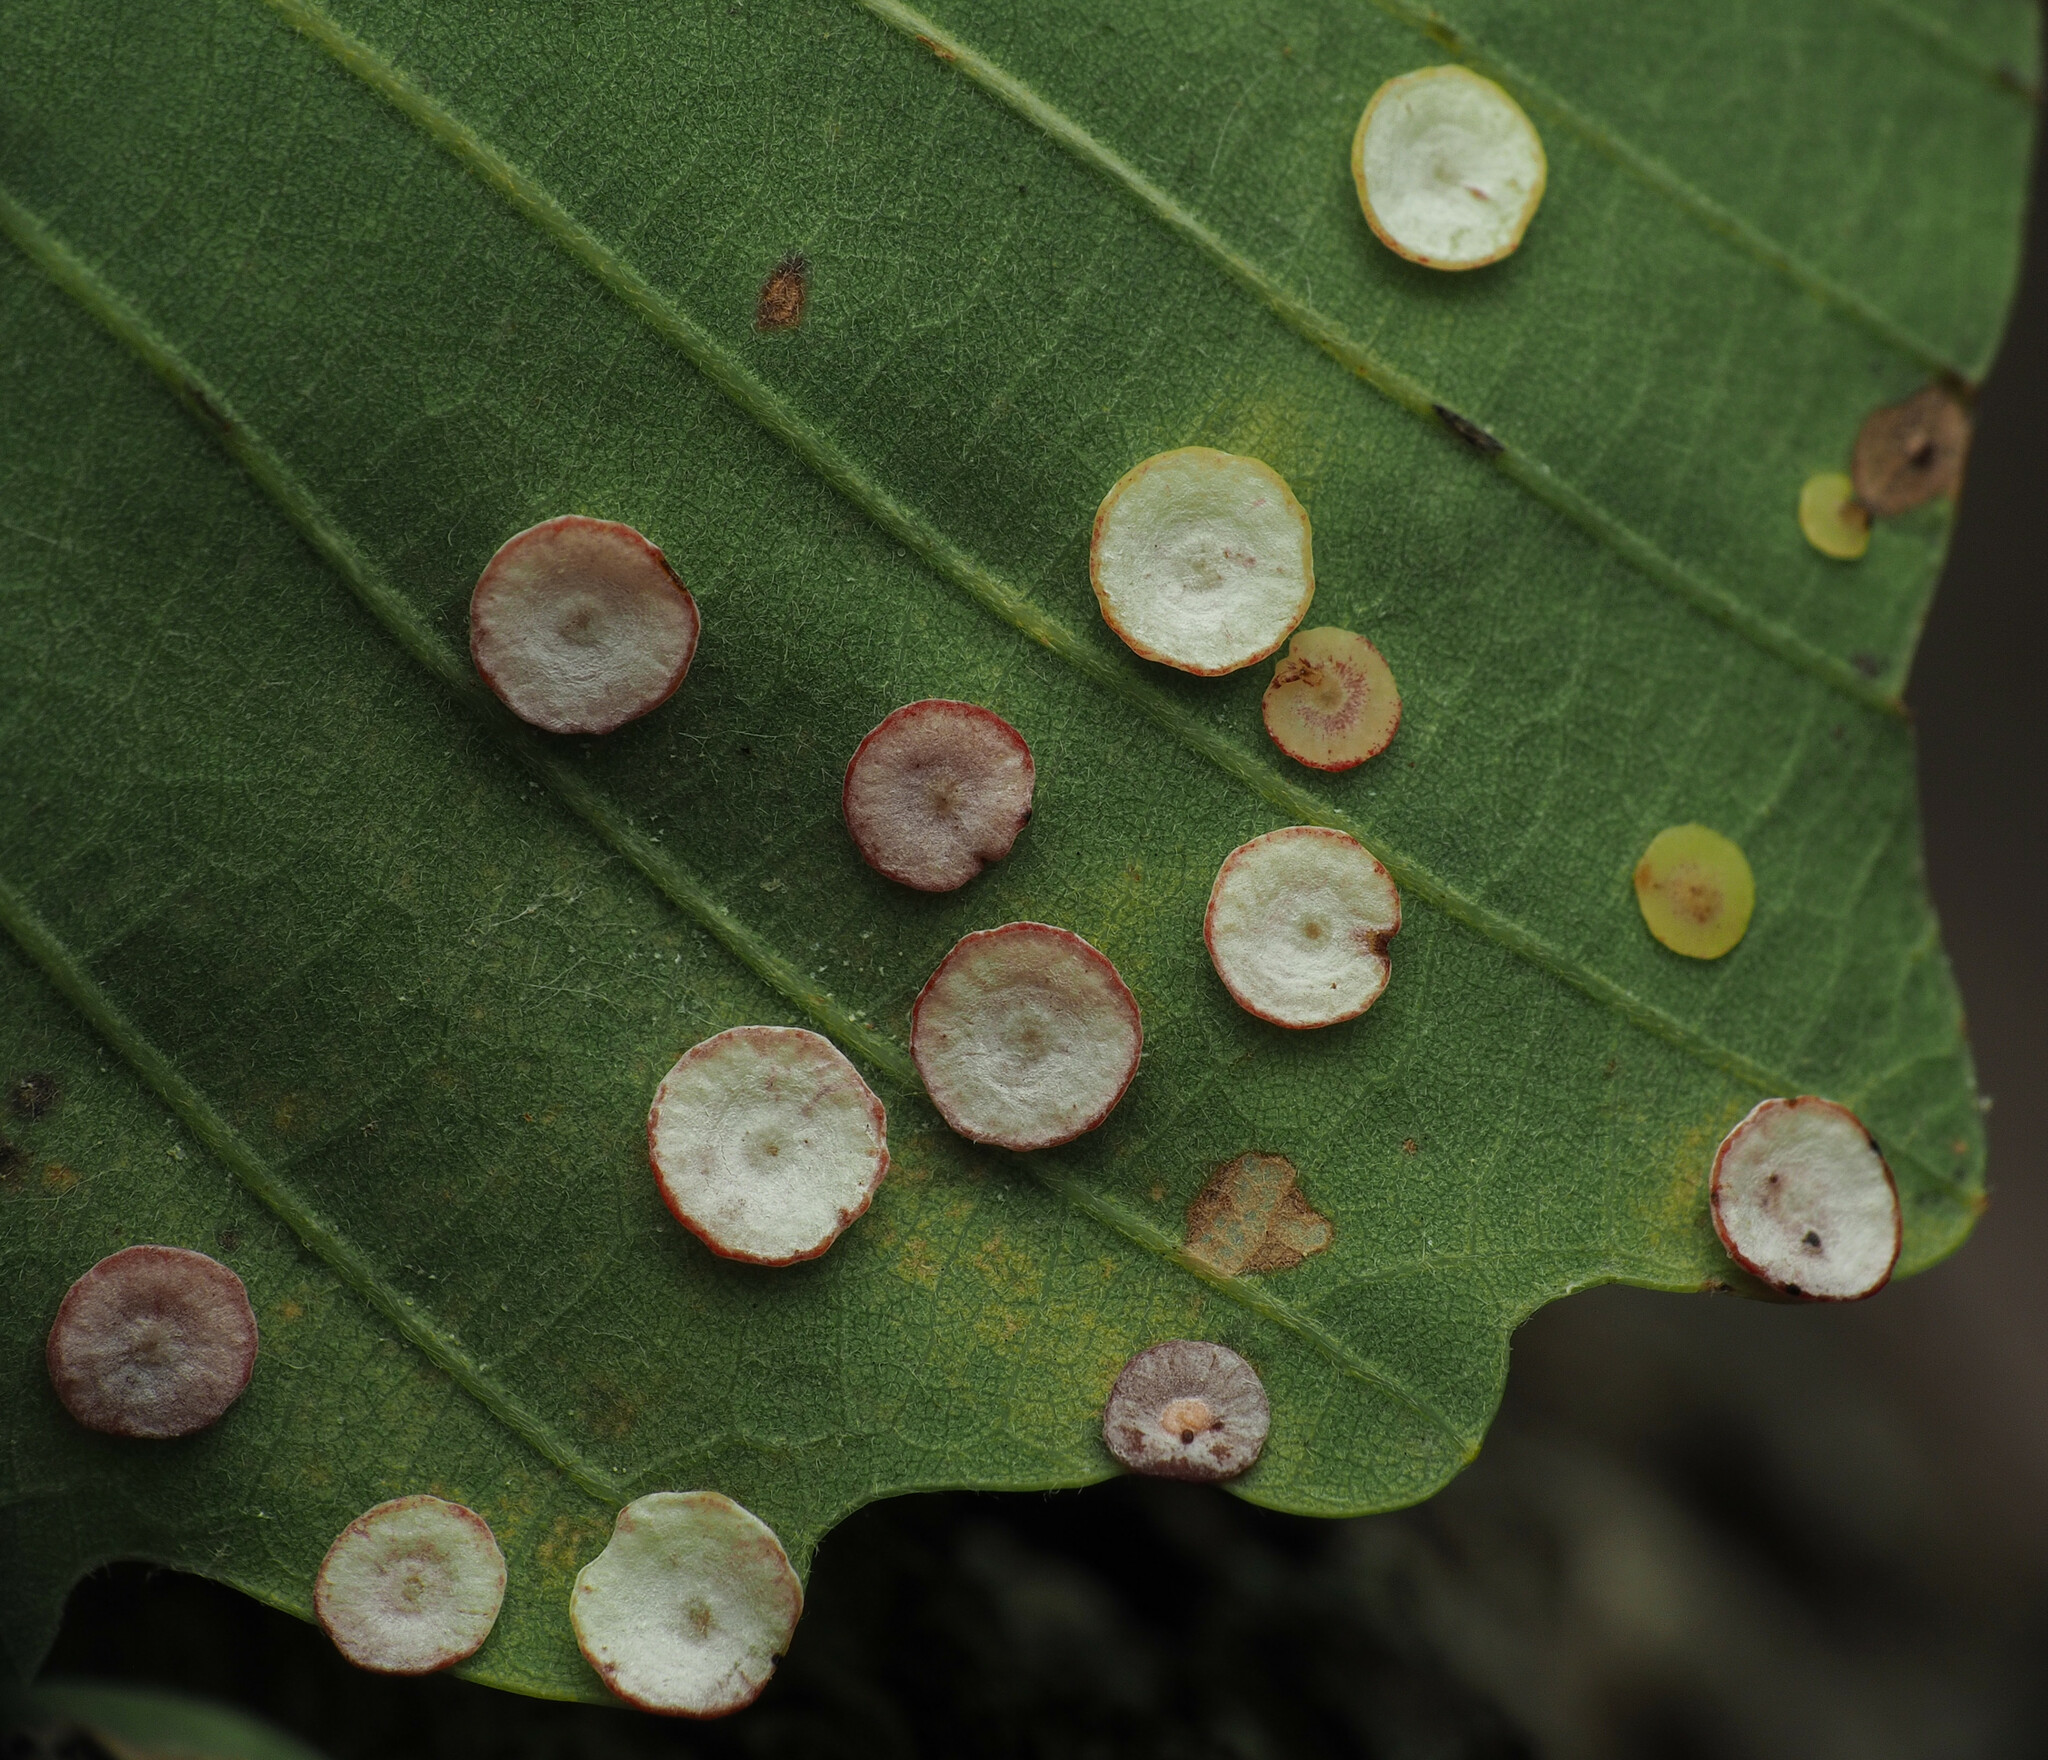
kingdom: Animalia
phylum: Arthropoda
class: Insecta
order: Hymenoptera
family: Cynipidae
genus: Phylloteras
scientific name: Phylloteras poculum
